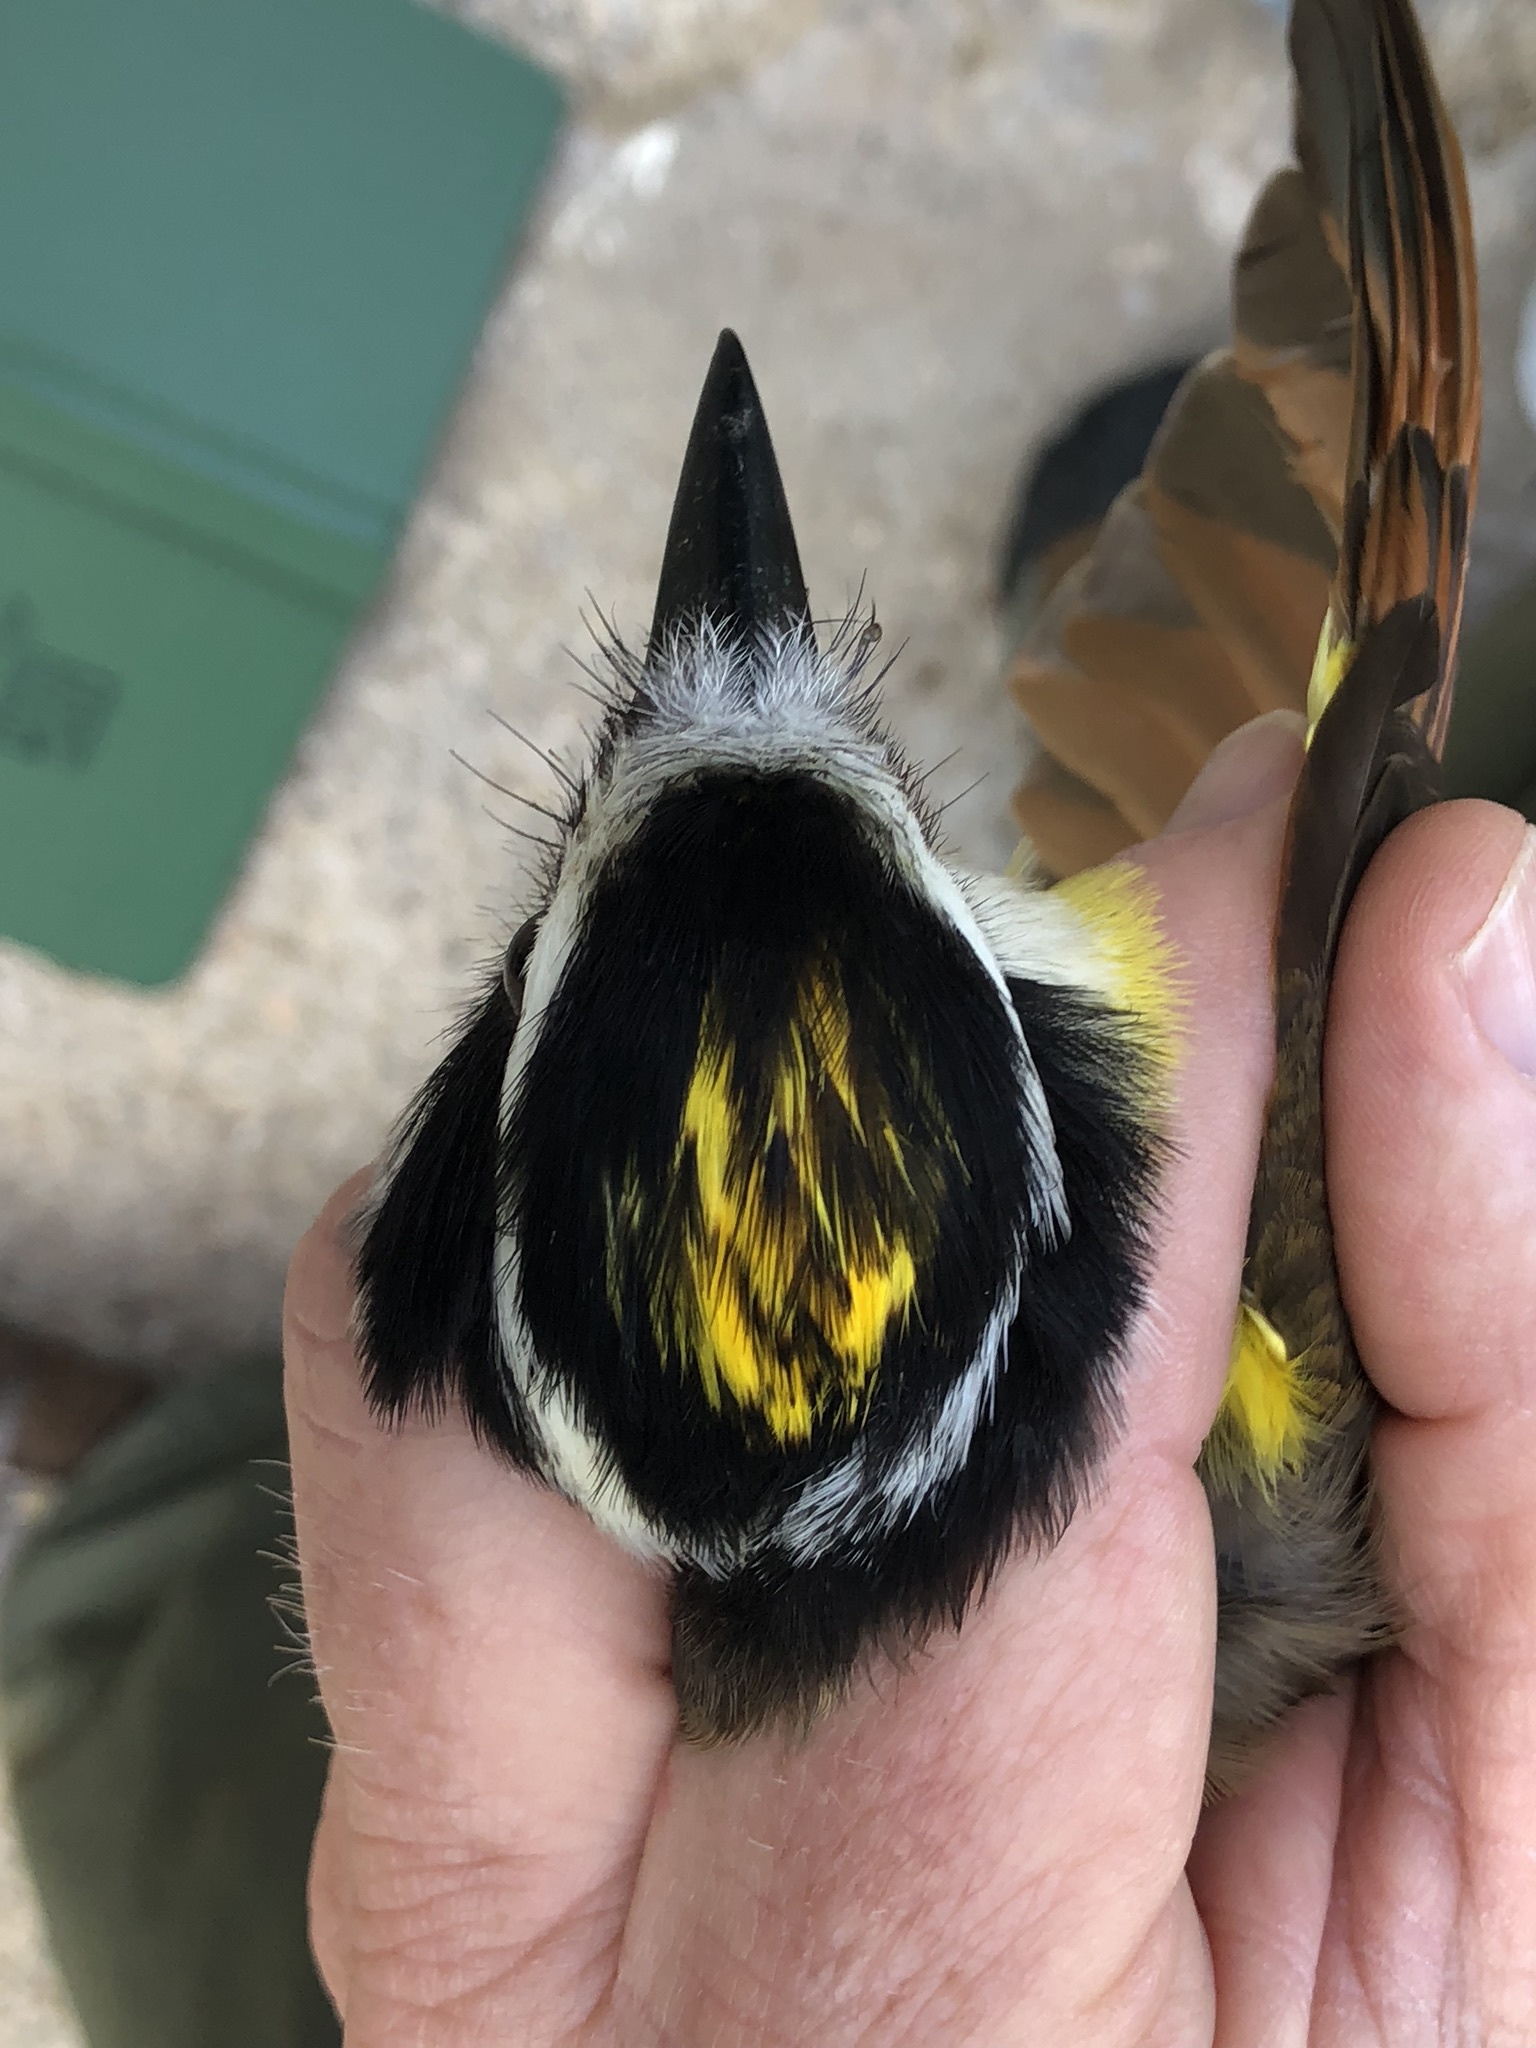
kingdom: Animalia
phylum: Chordata
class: Aves
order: Passeriformes
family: Tyrannidae
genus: Pitangus
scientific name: Pitangus sulphuratus
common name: Great kiskadee
